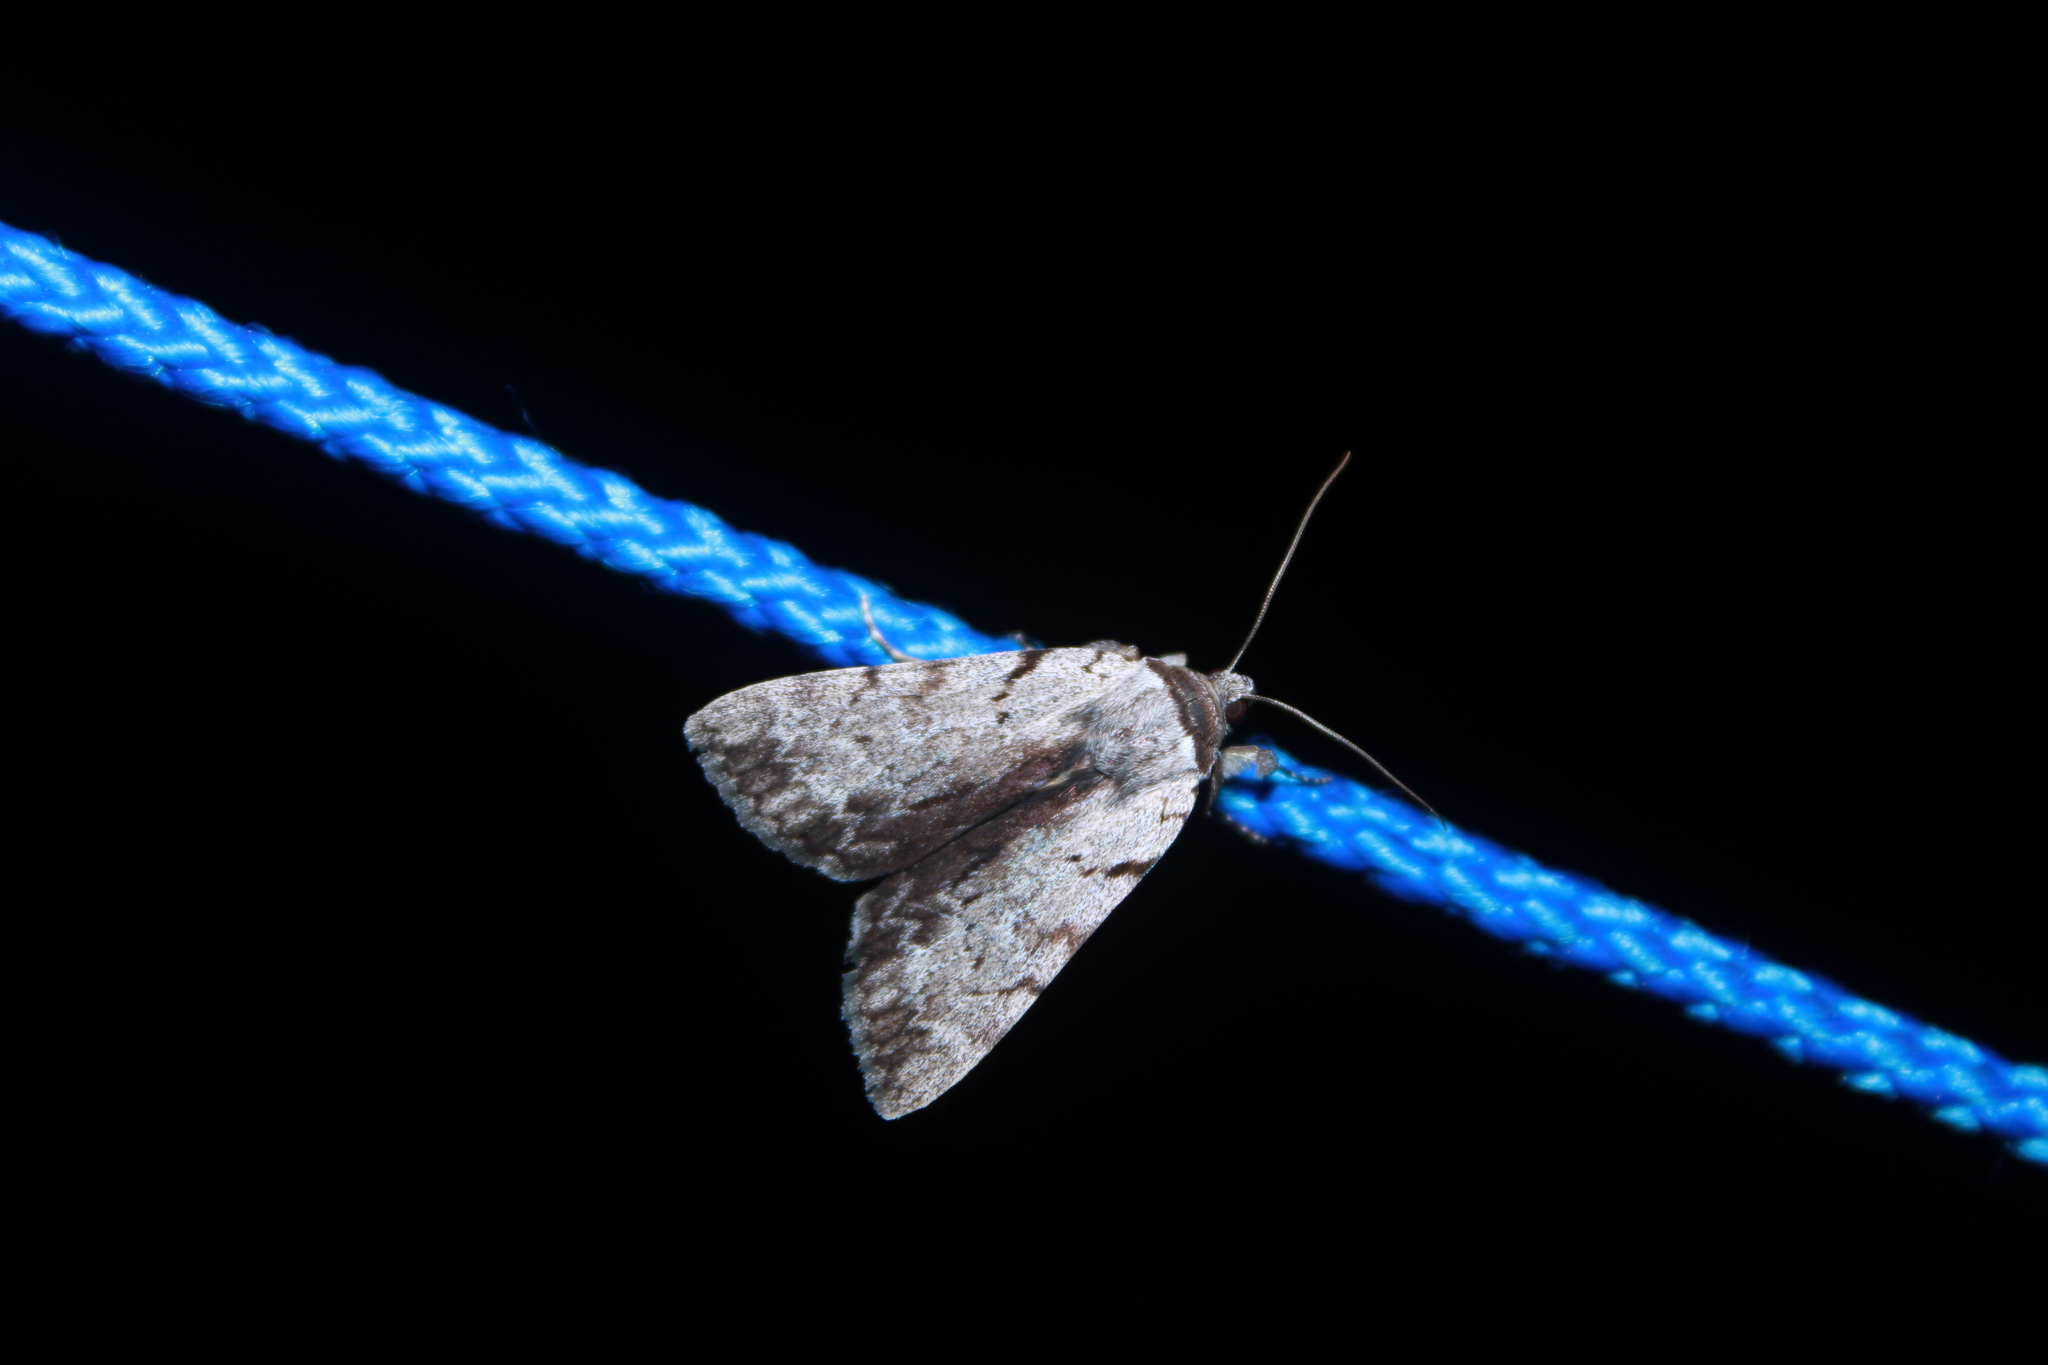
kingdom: Animalia
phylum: Arthropoda
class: Insecta
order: Lepidoptera
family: Erebidae
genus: Catocala
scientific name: Catocala sordida
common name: Sordid underwing
